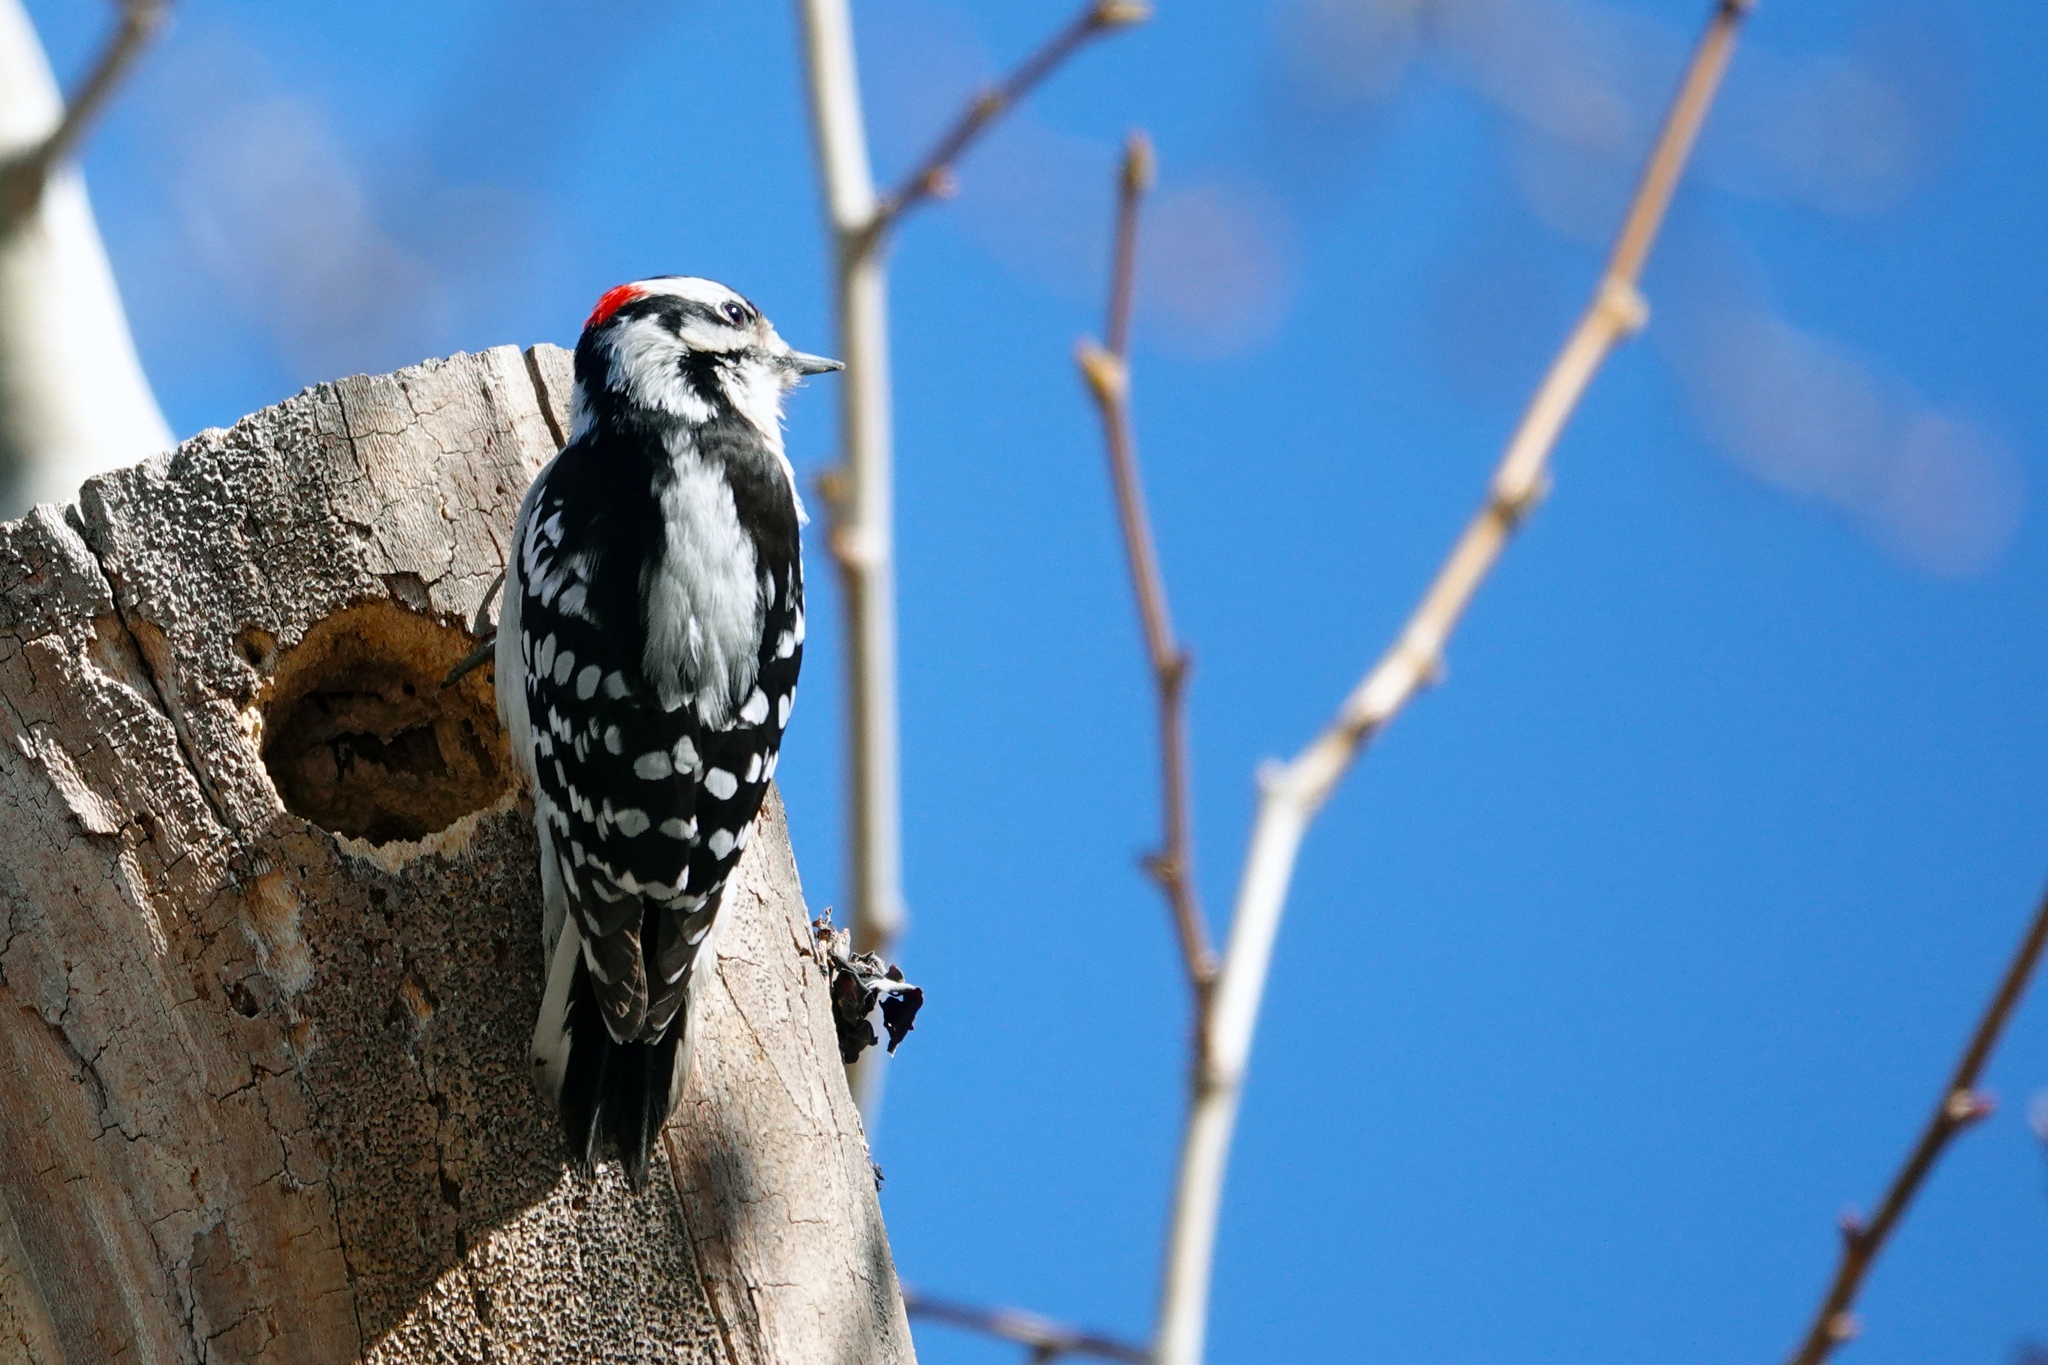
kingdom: Animalia
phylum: Chordata
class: Aves
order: Piciformes
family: Picidae
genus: Dryobates
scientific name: Dryobates pubescens
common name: Downy woodpecker
